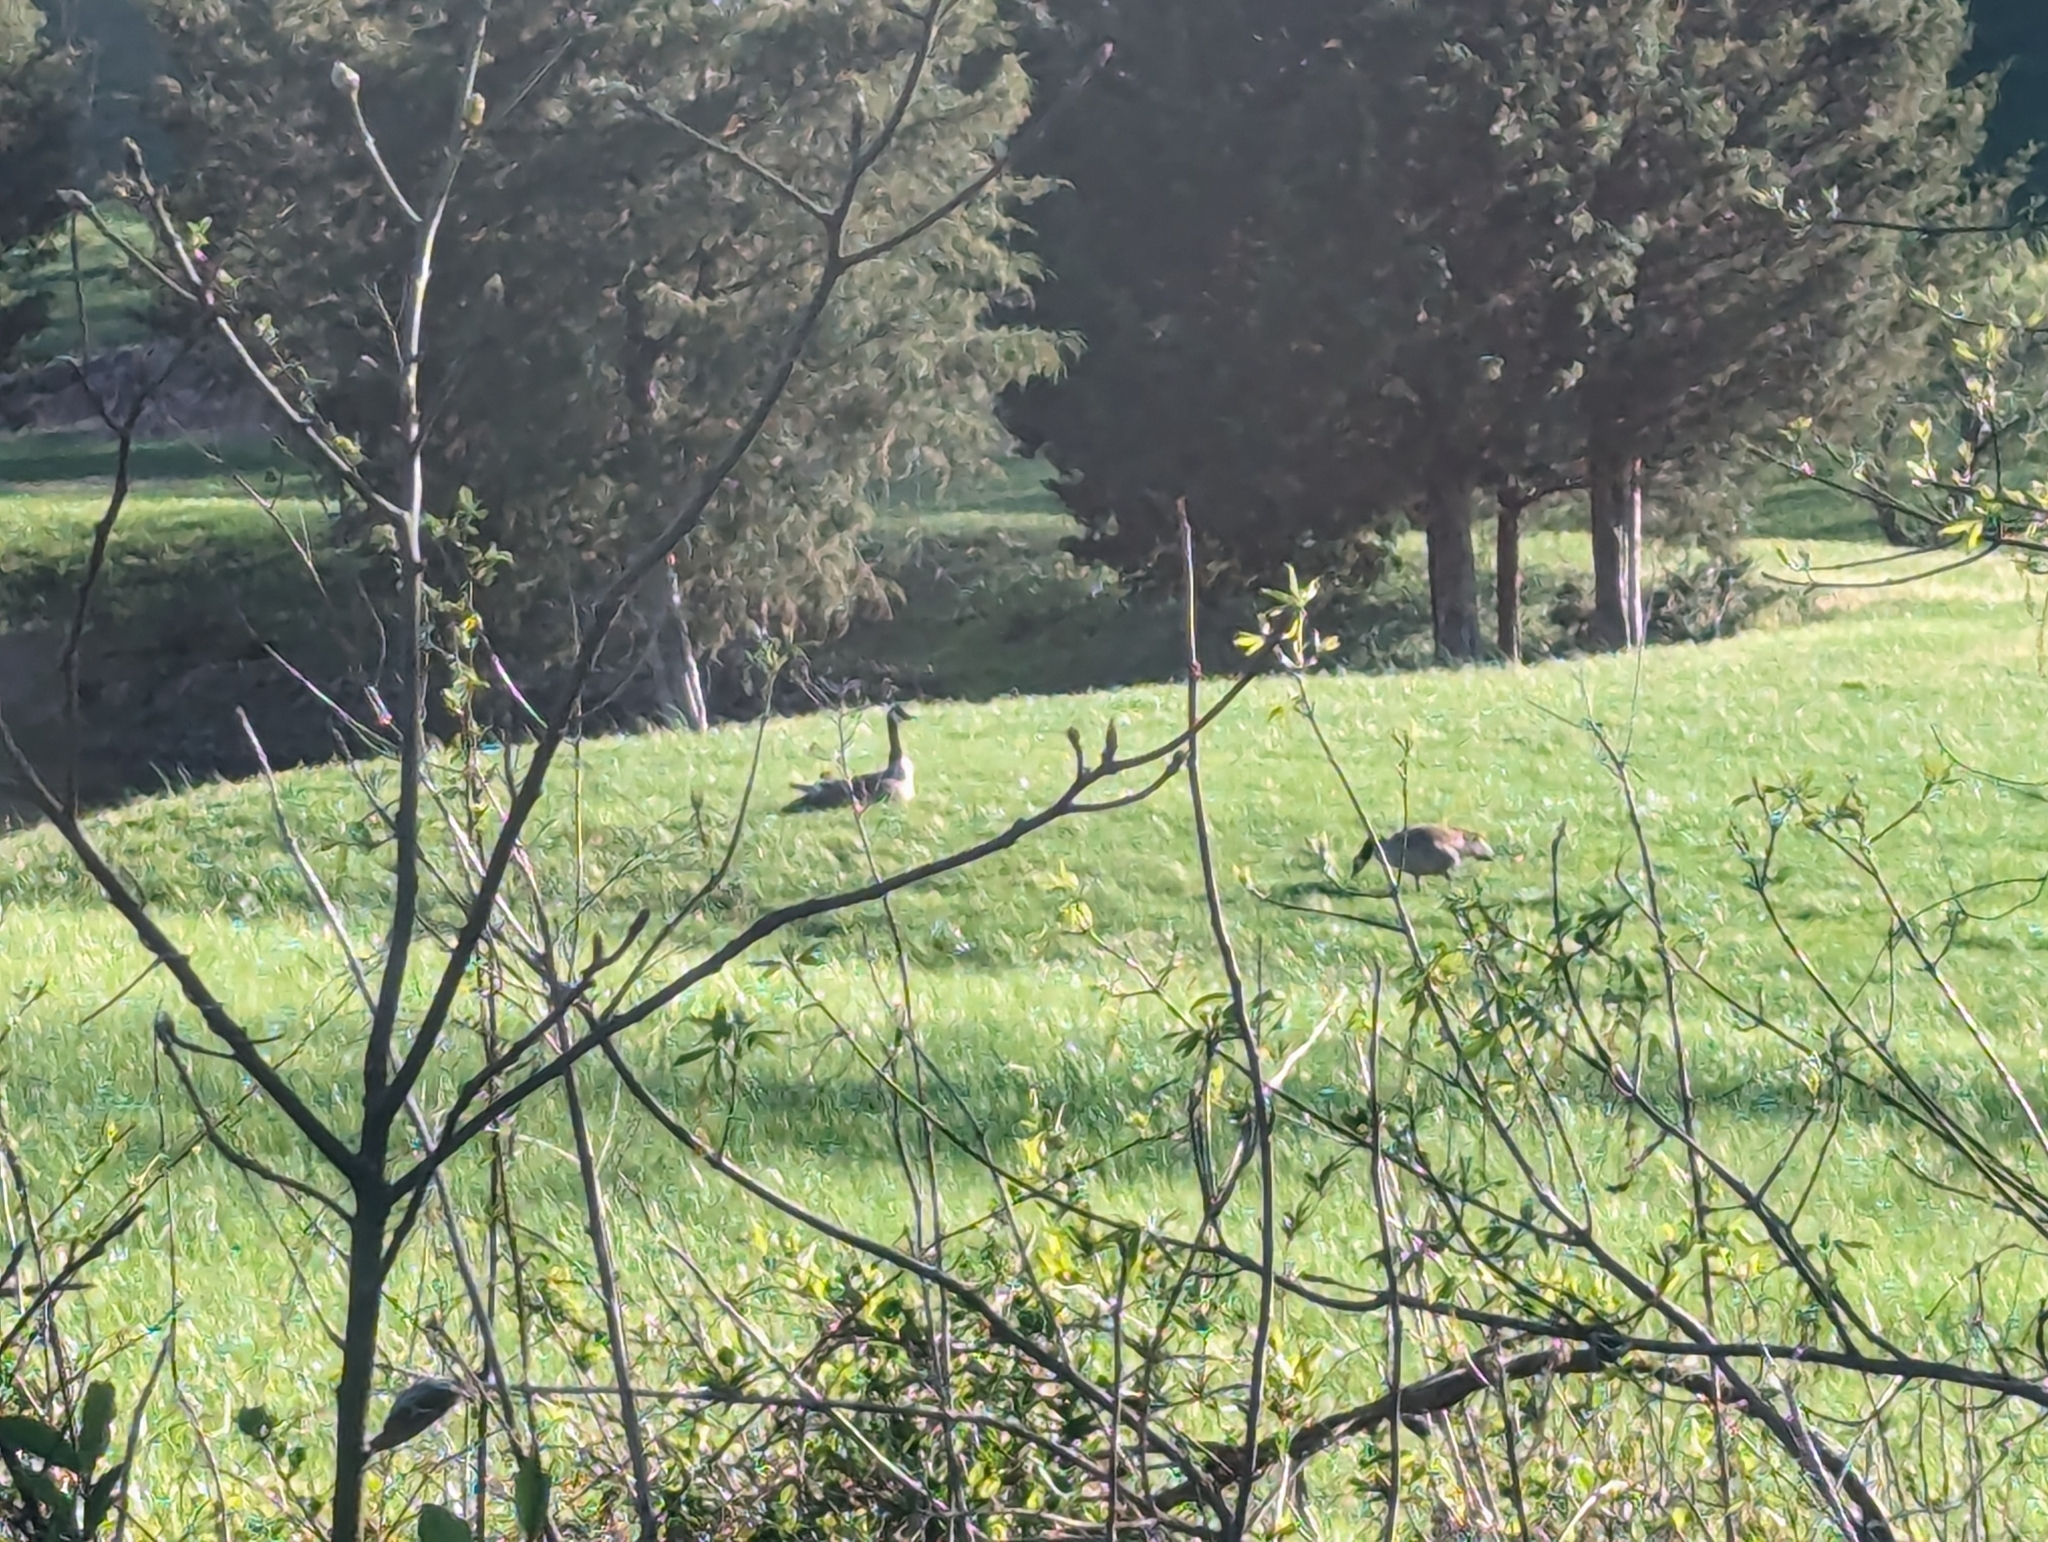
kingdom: Animalia
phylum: Chordata
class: Aves
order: Anseriformes
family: Anatidae
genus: Branta
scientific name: Branta canadensis
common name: Canada goose
